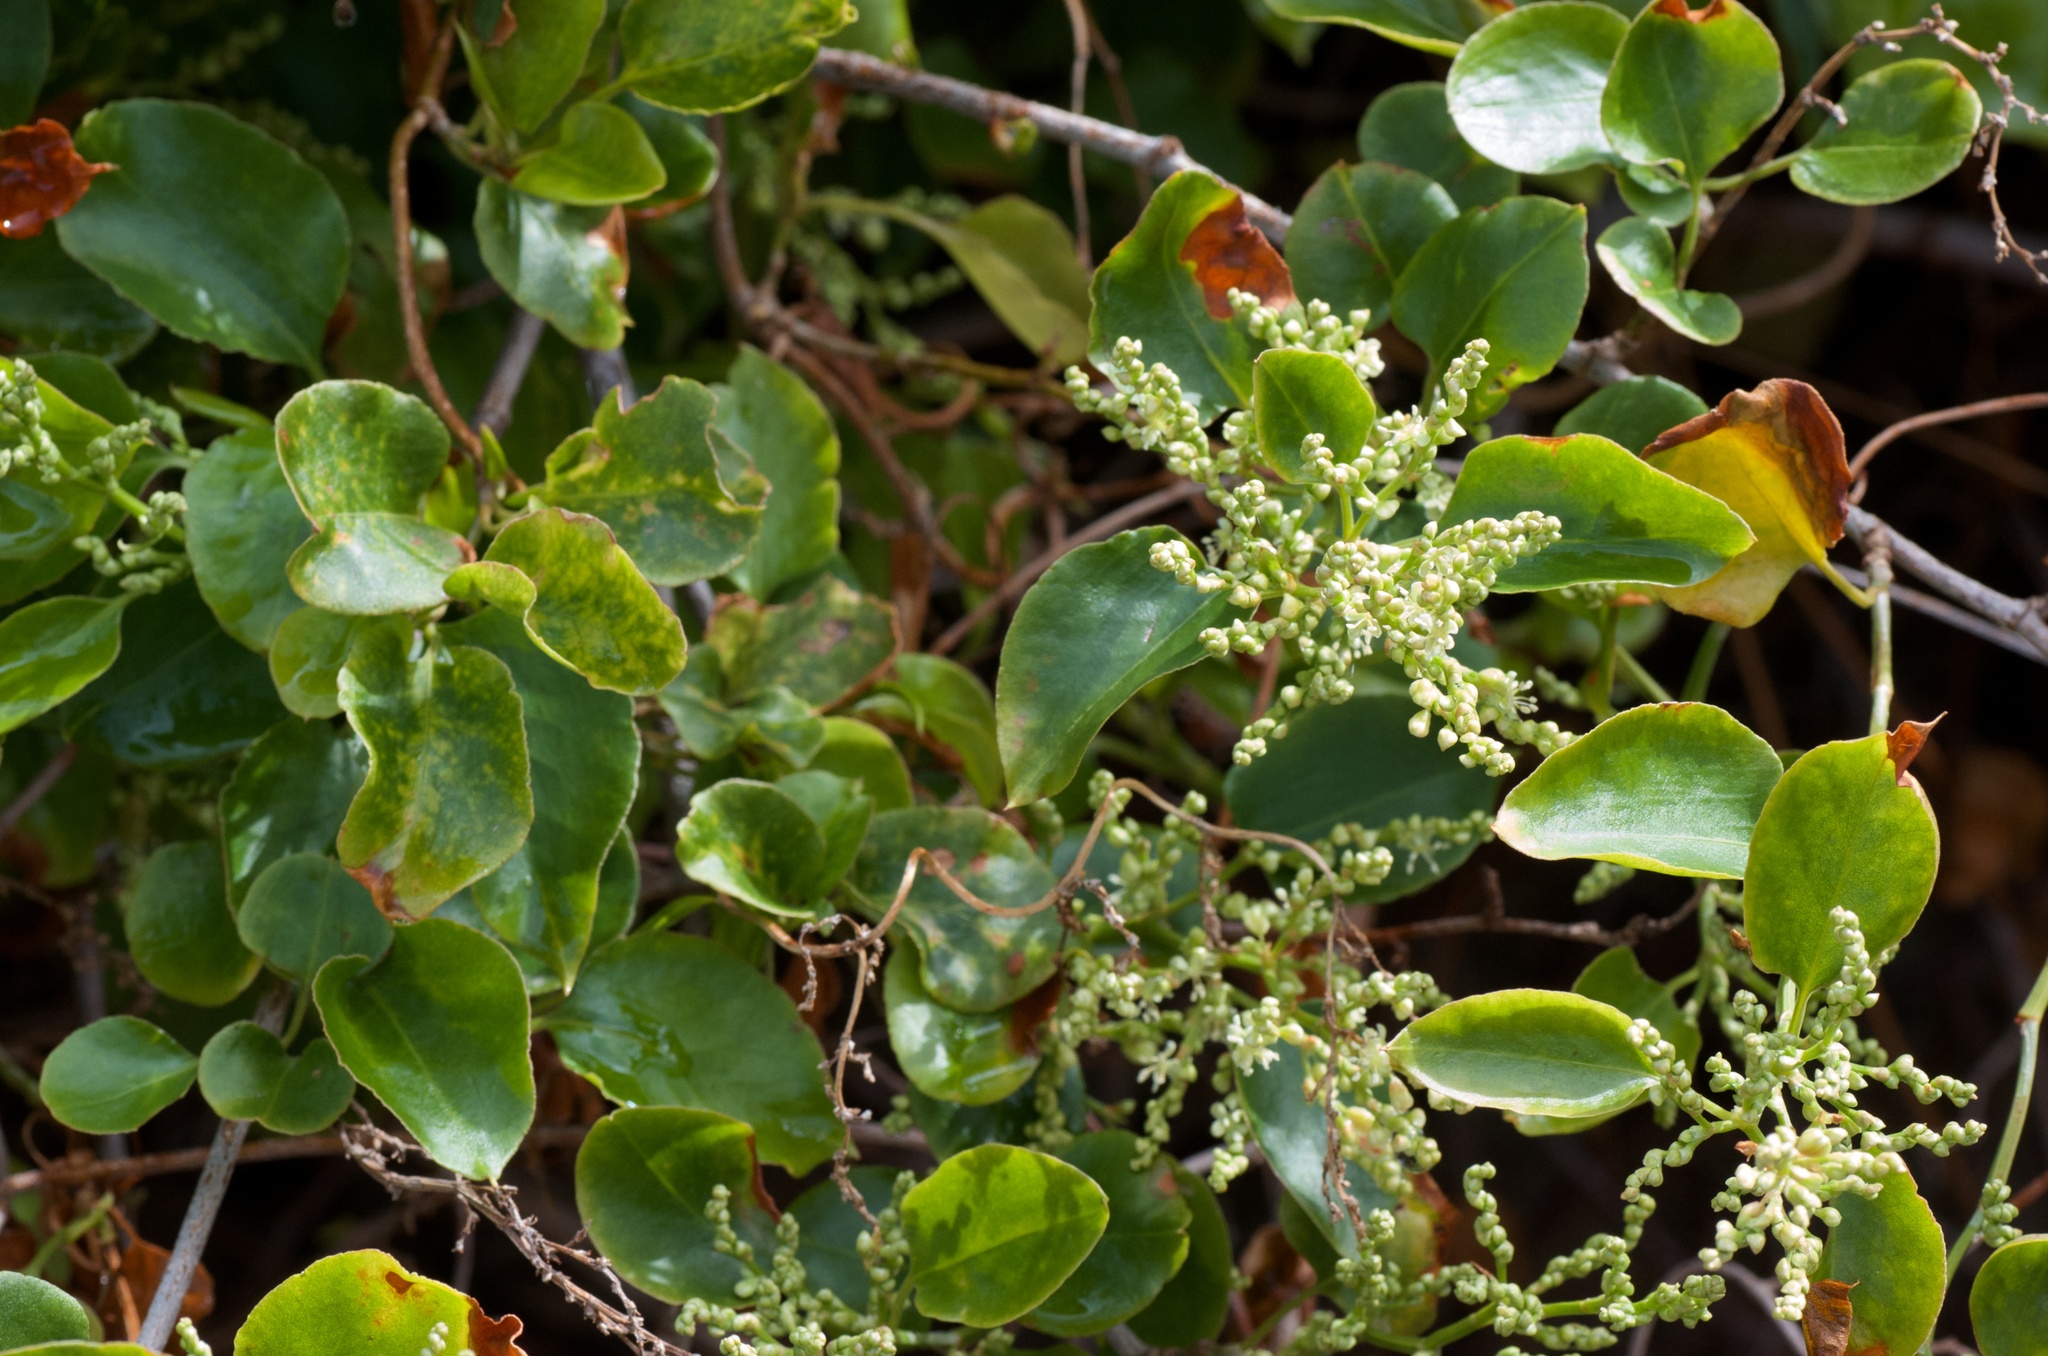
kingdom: Plantae
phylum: Tracheophyta
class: Magnoliopsida
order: Caryophyllales
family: Polygonaceae
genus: Muehlenbeckia
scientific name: Muehlenbeckia australis
